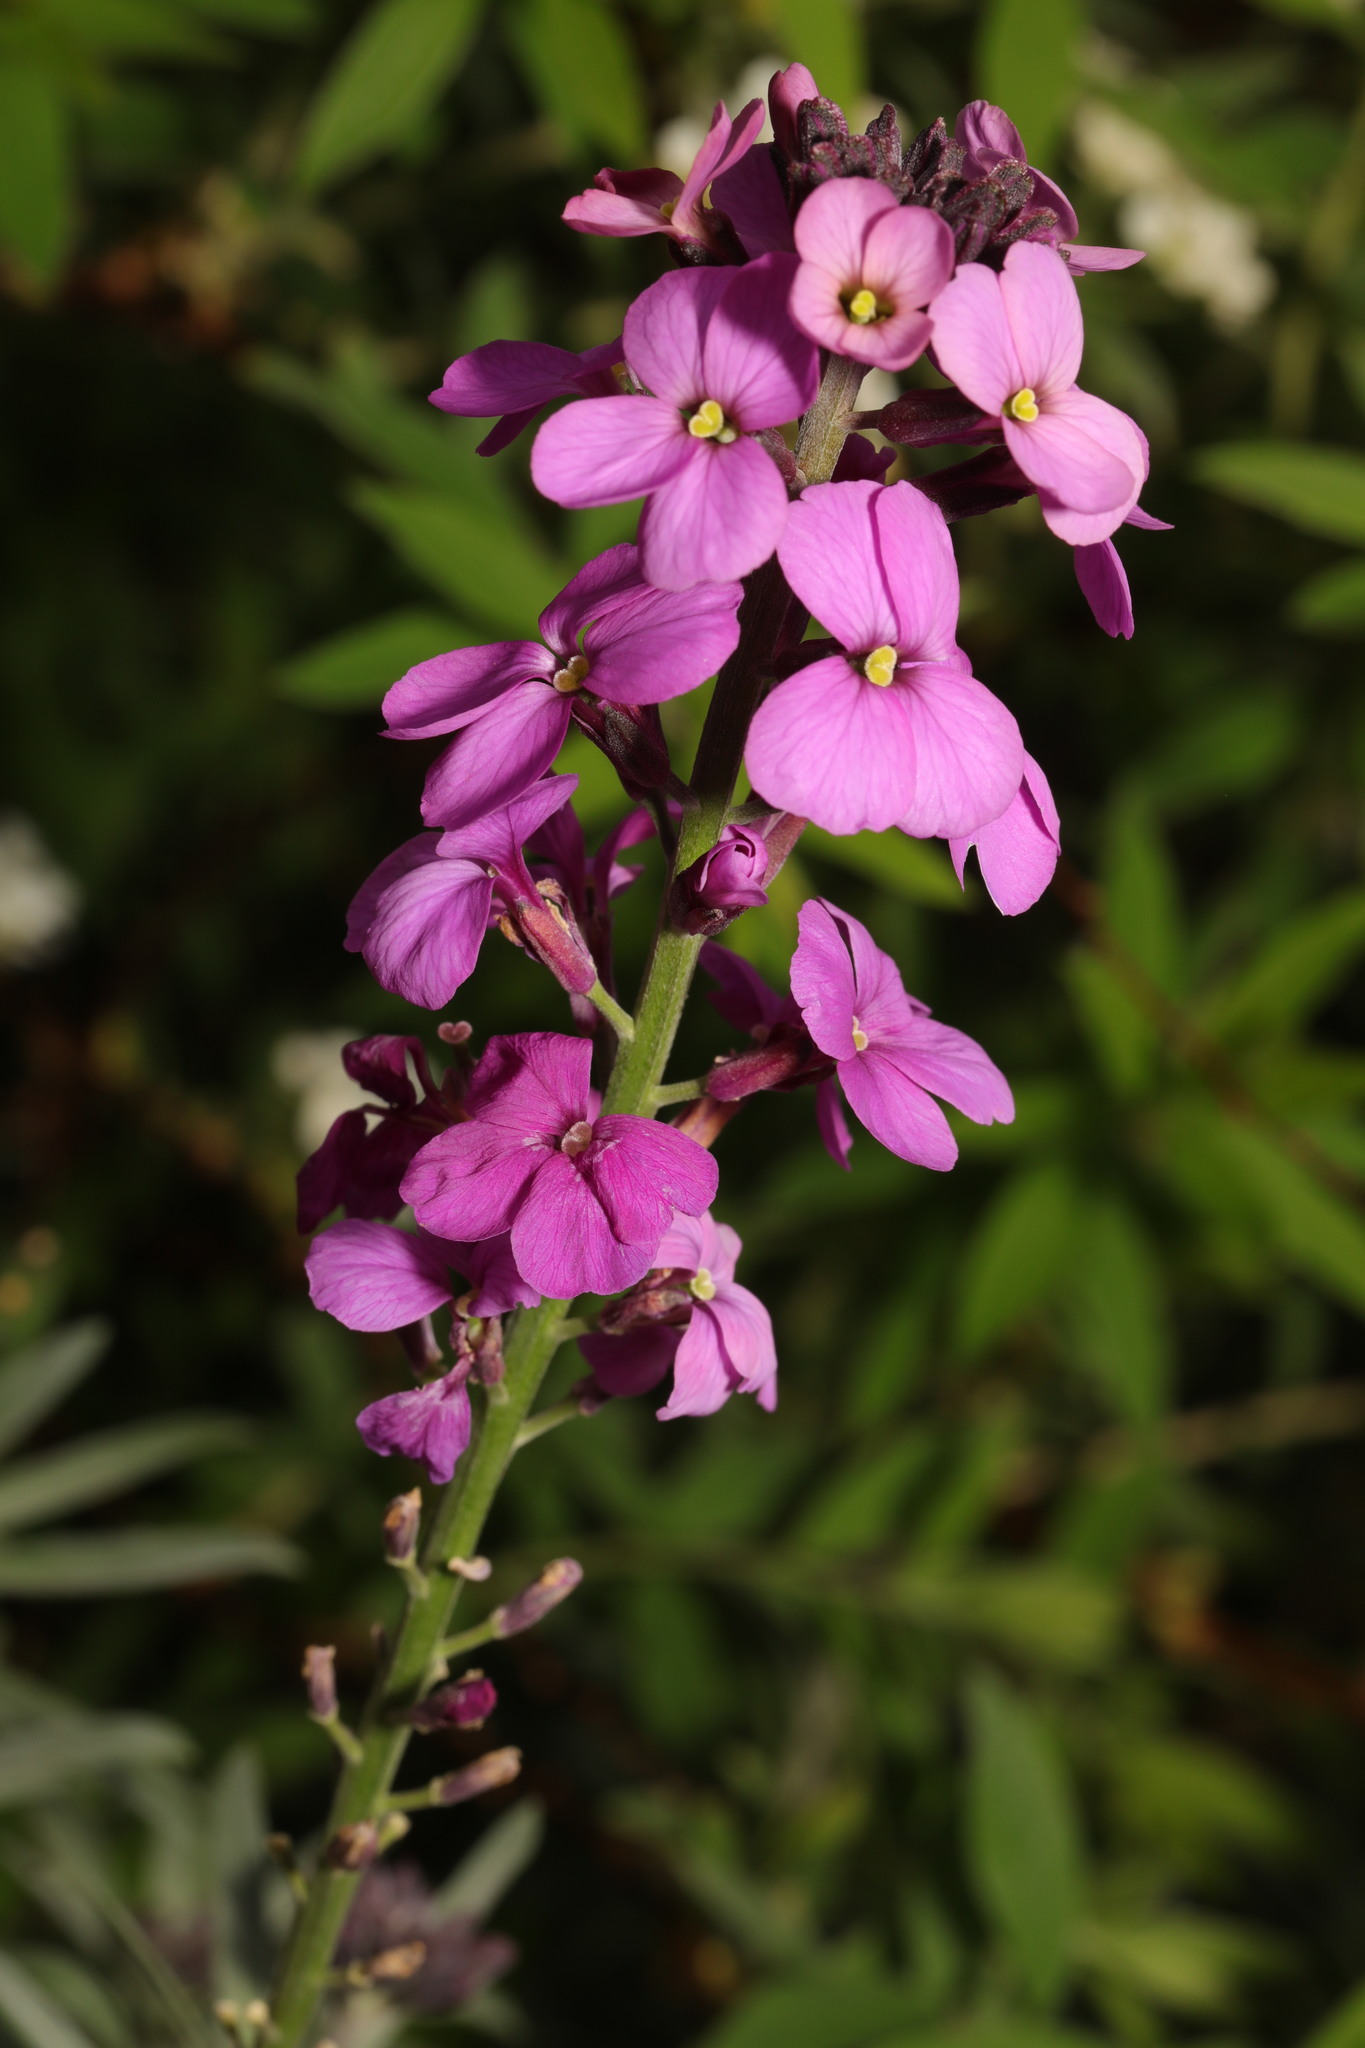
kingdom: Plantae
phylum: Tracheophyta
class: Magnoliopsida
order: Brassicales
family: Brassicaceae
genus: Erysimum
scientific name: Erysimum linifolium
